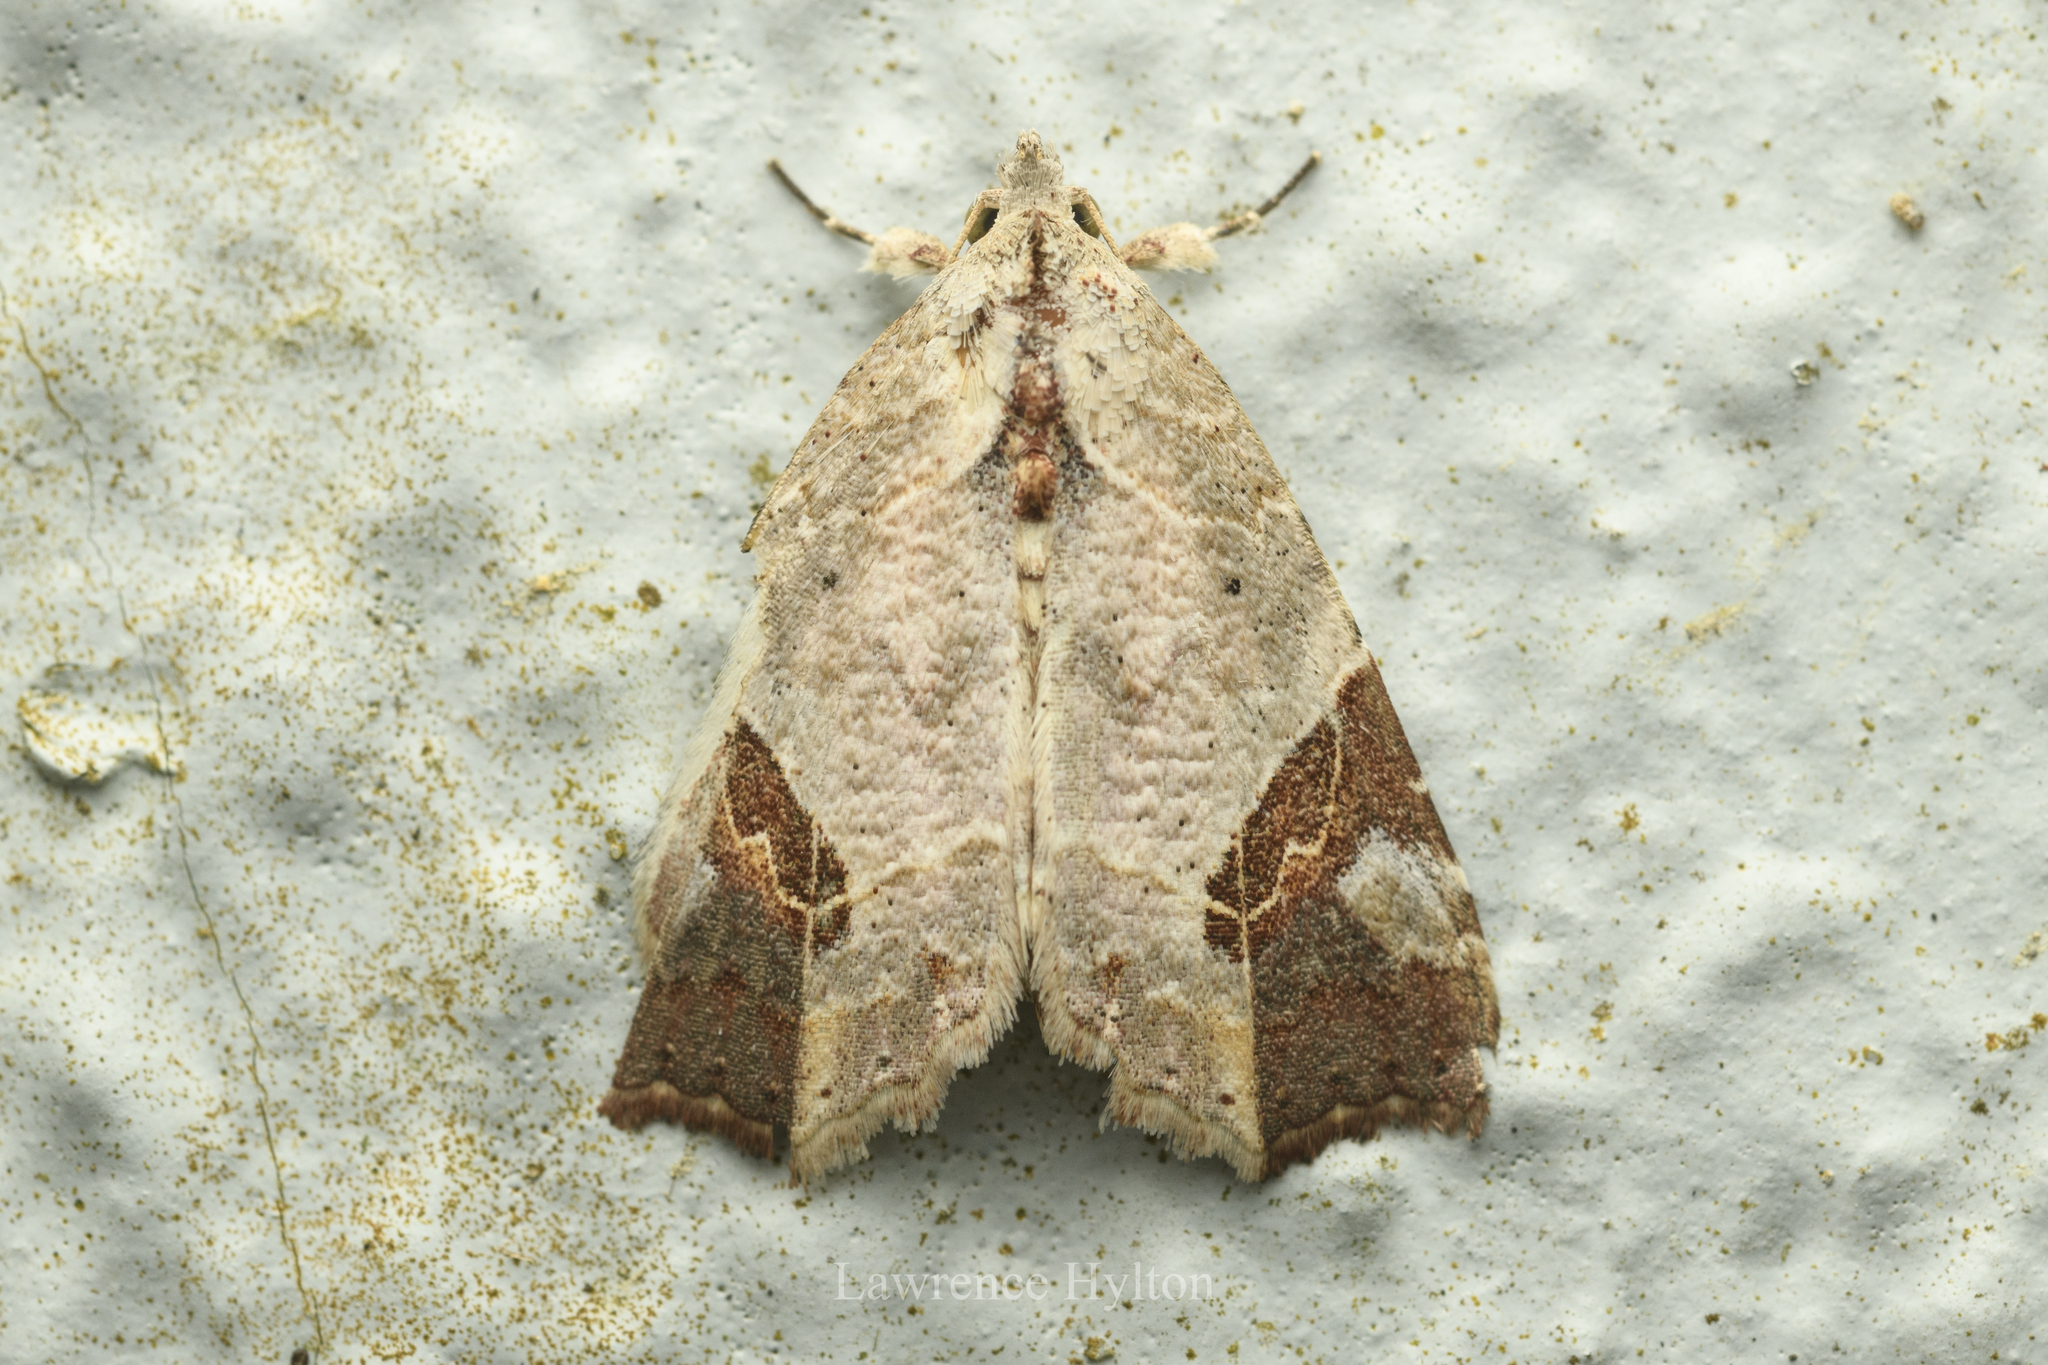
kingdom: Animalia
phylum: Arthropoda
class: Insecta
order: Lepidoptera
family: Erebidae
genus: Tamba
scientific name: Tamba cautiperas
